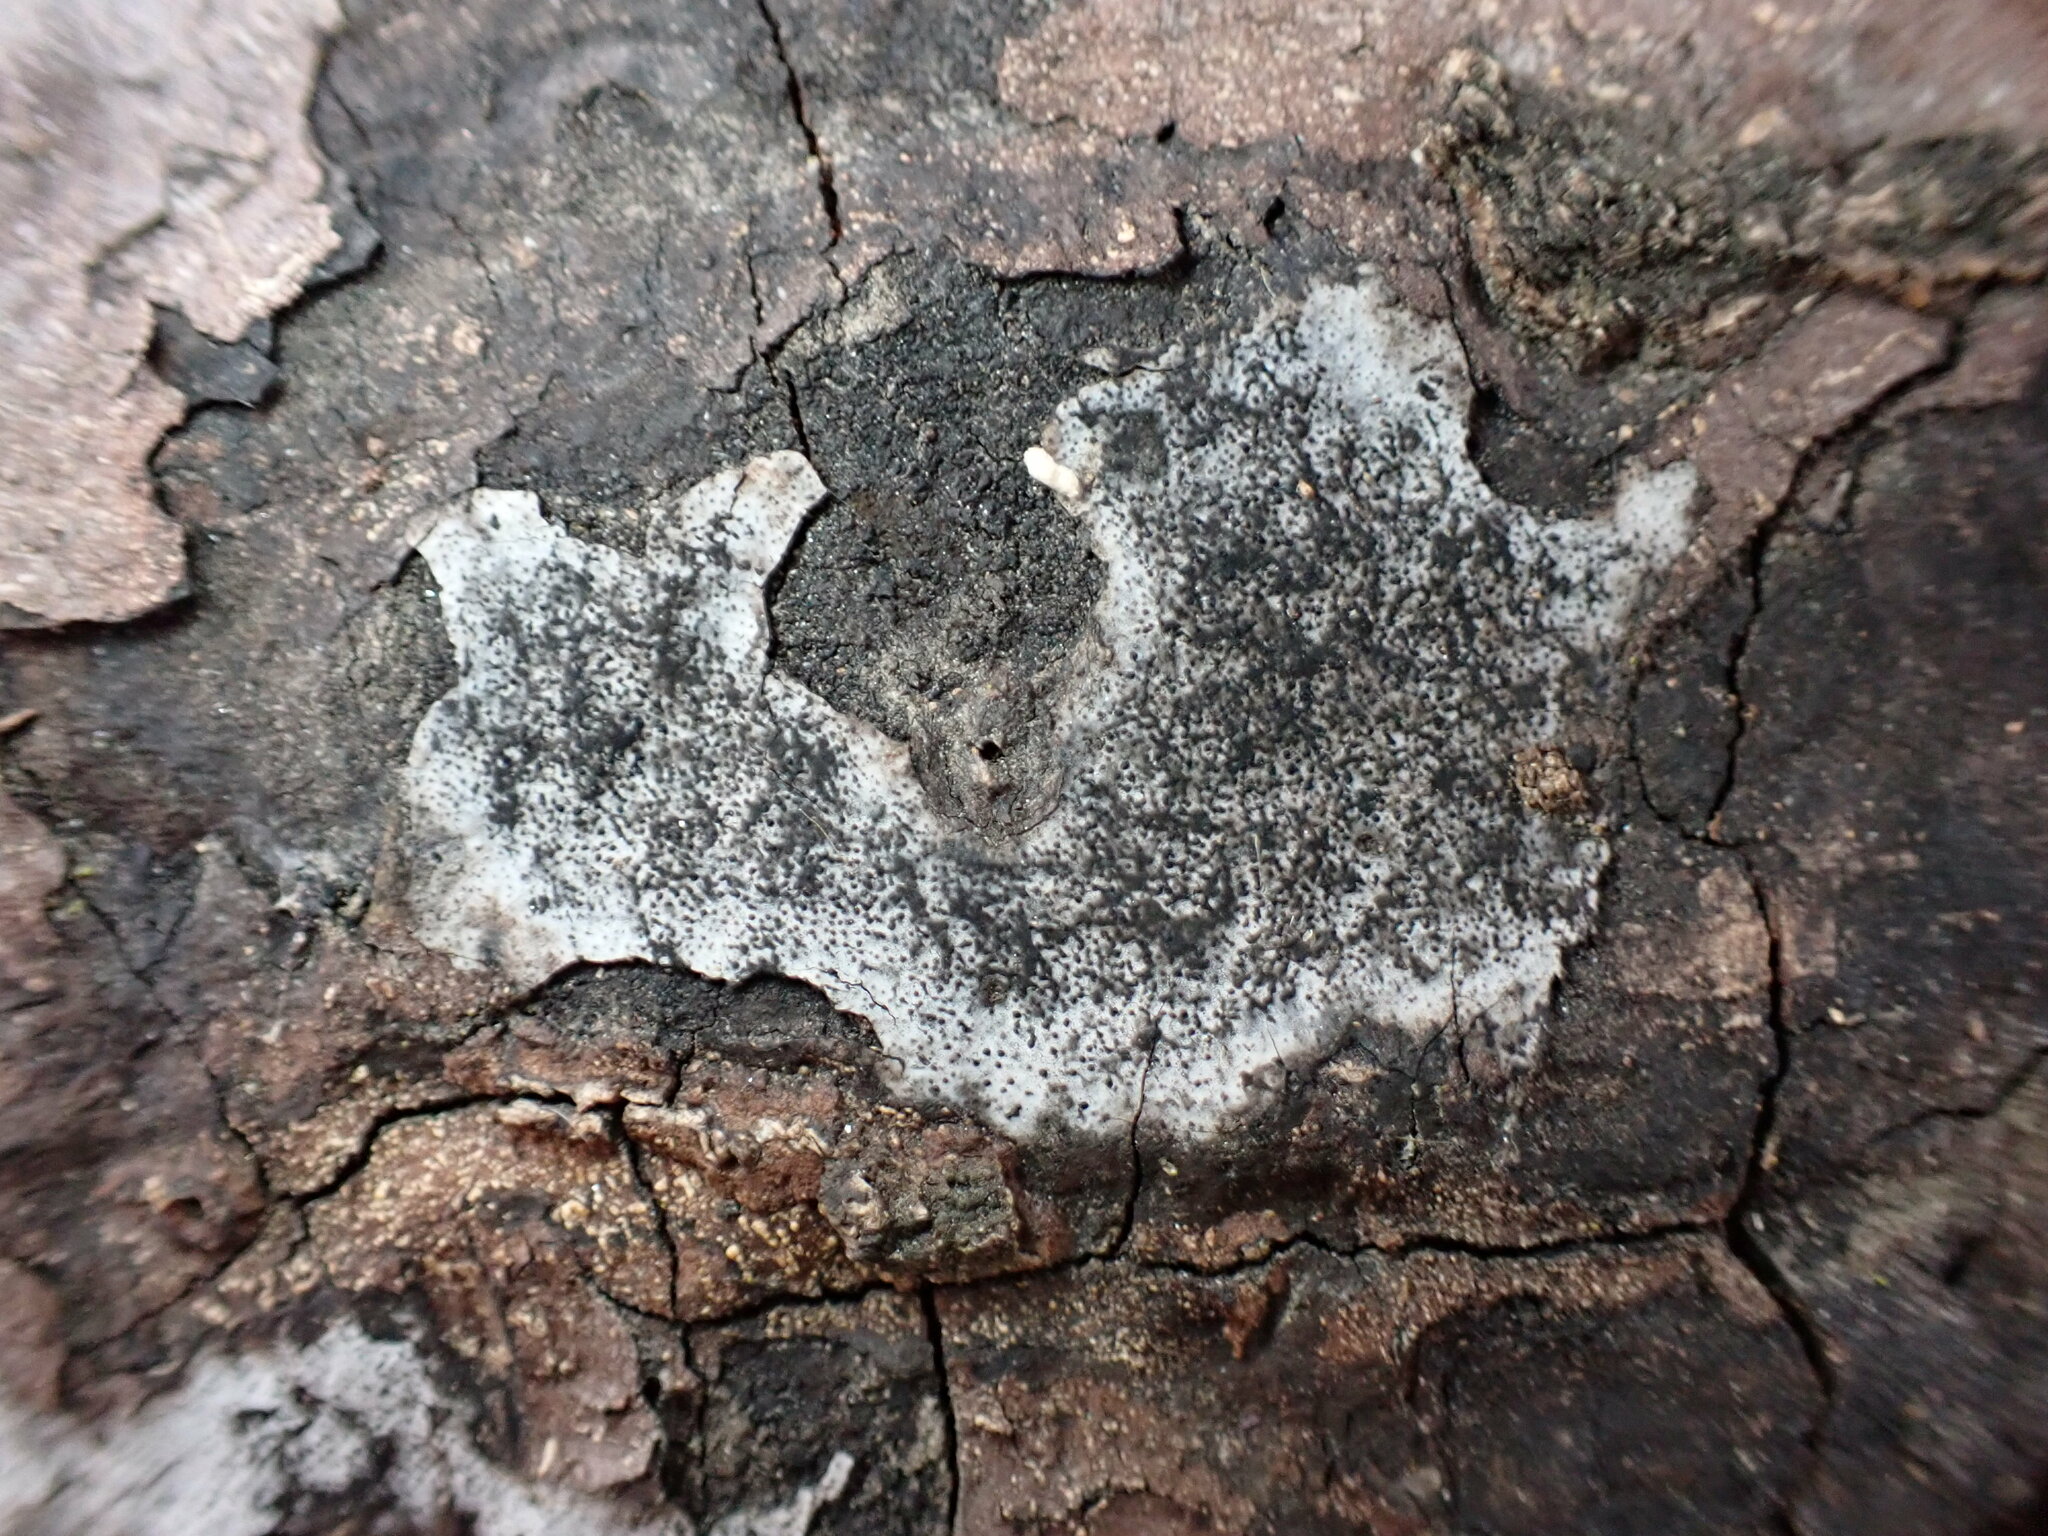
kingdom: Fungi
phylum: Ascomycota
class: Sordariomycetes
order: Xylariales
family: Graphostromataceae
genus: Biscogniauxia
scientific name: Biscogniauxia atropunctata
